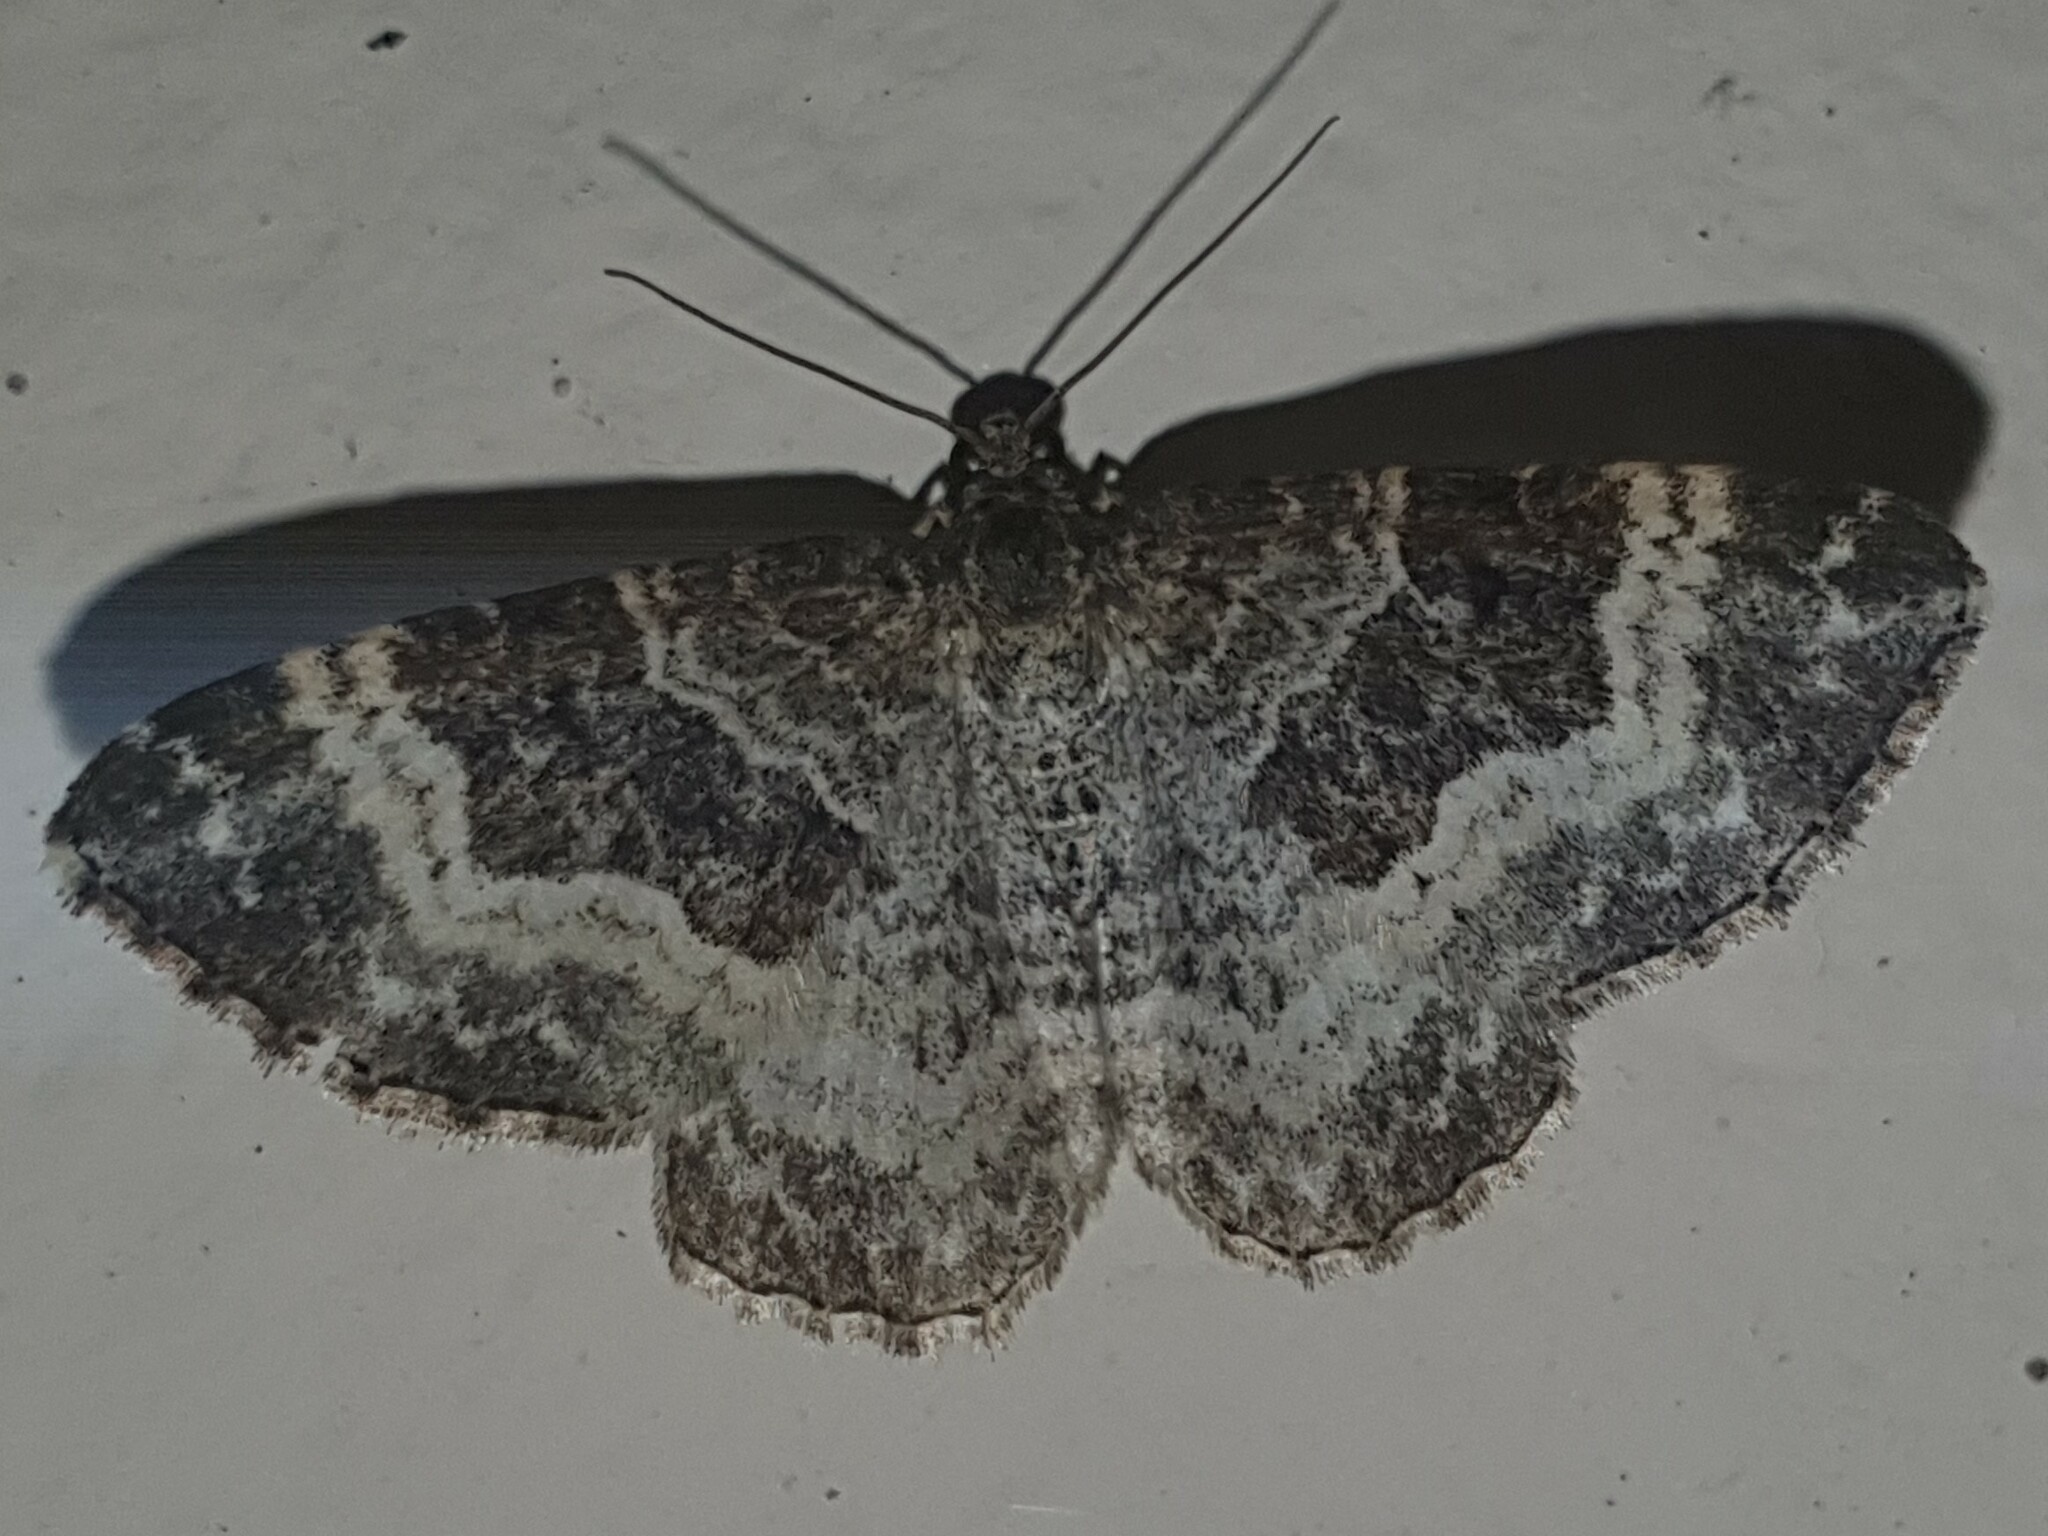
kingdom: Animalia
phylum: Arthropoda
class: Insecta
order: Lepidoptera
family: Geometridae
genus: Epirrhoe
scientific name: Epirrhoe alternata
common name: Common carpet
